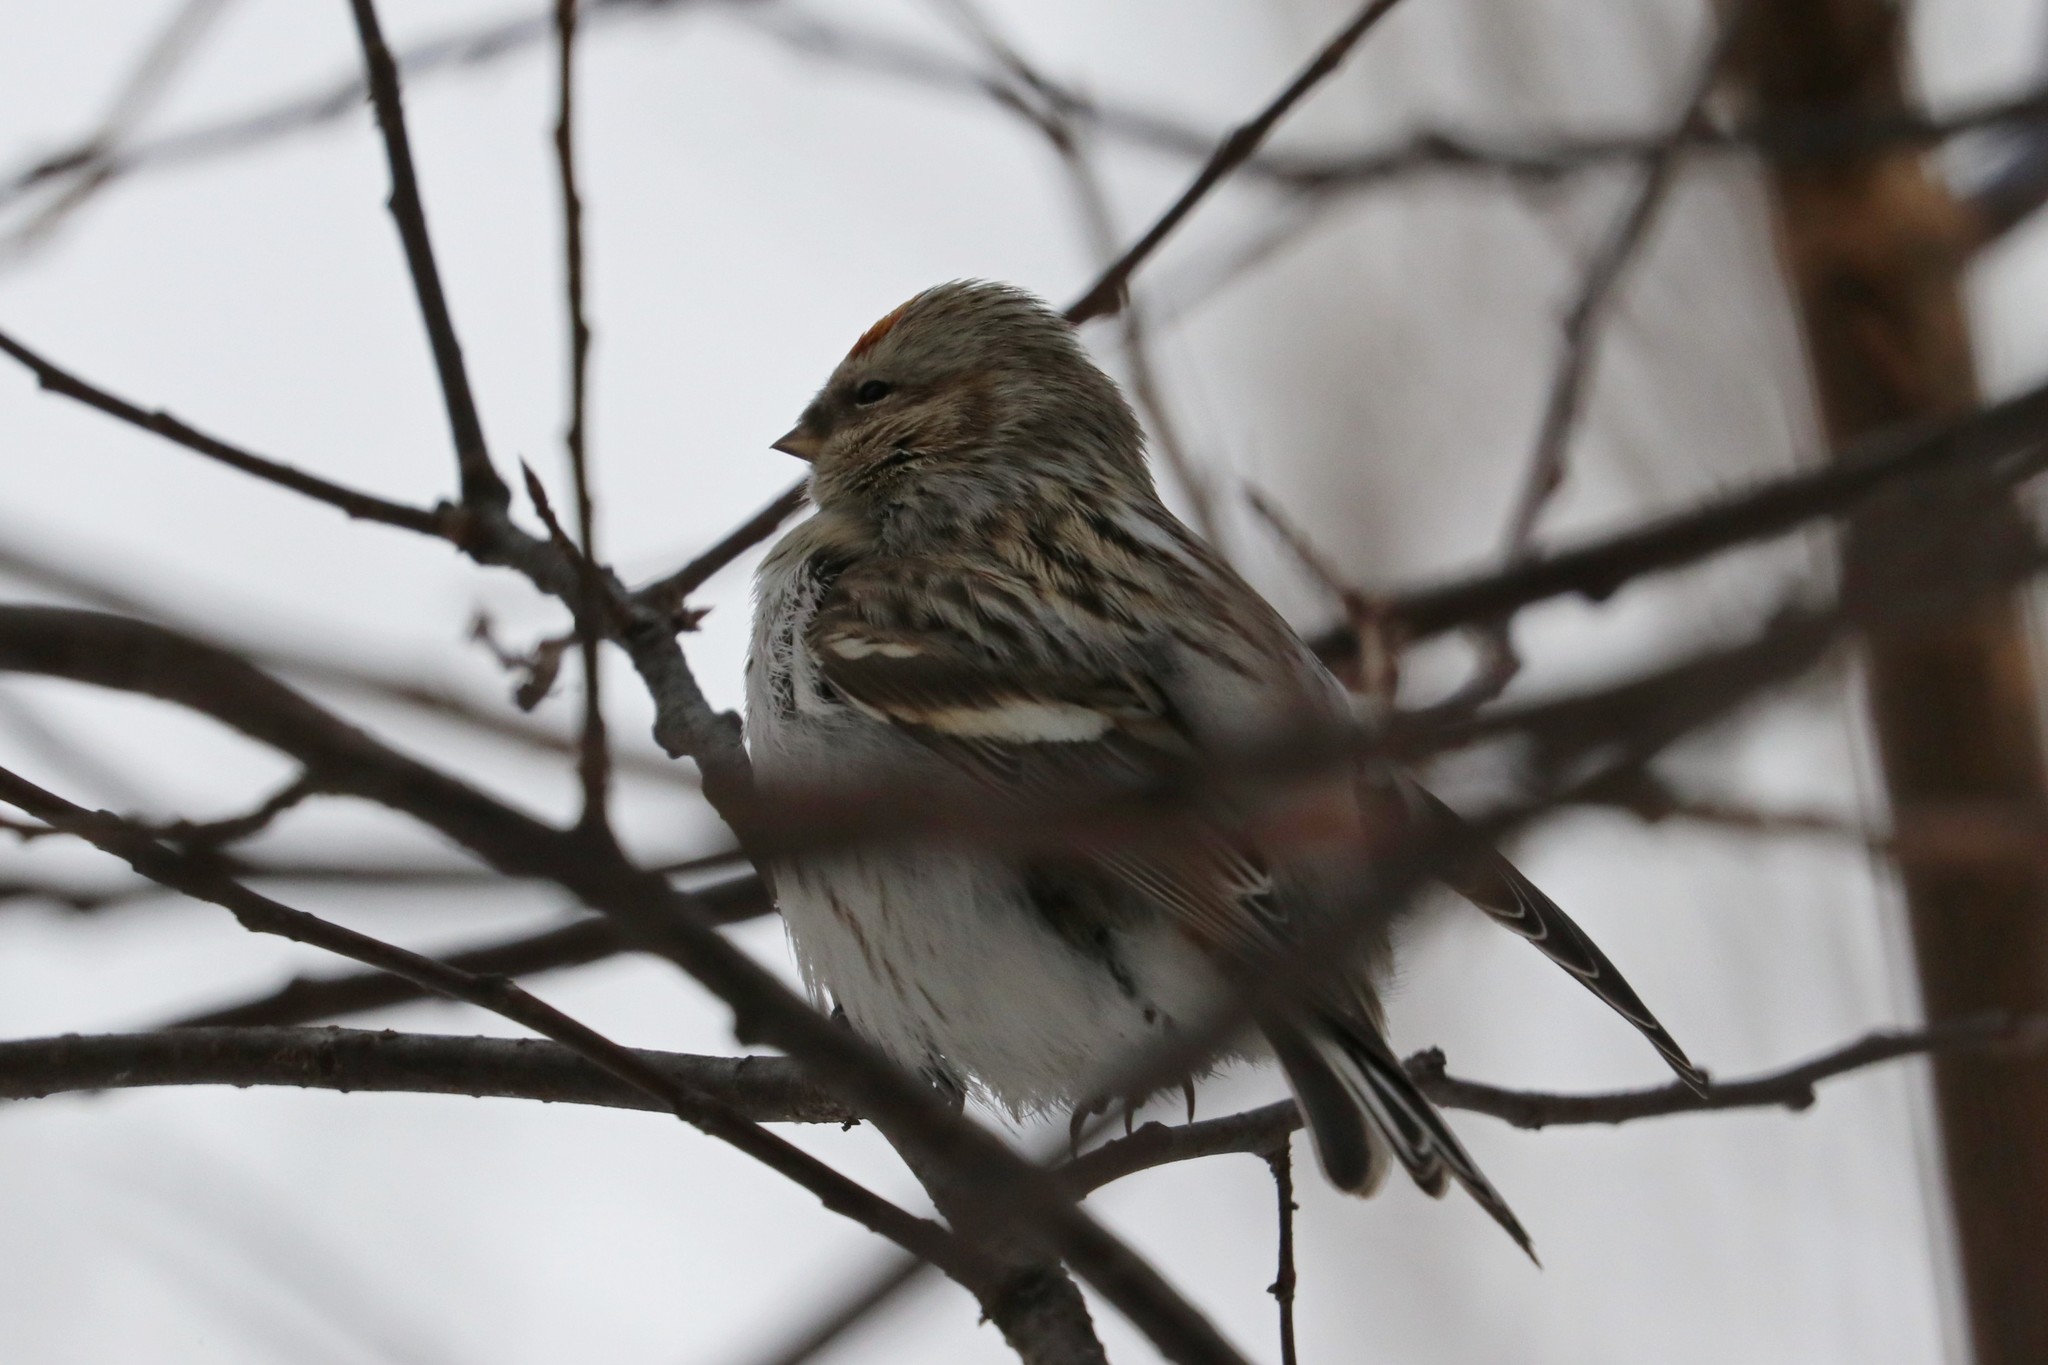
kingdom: Animalia
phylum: Chordata
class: Aves
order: Passeriformes
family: Fringillidae
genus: Acanthis
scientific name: Acanthis flammea
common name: Common redpoll
